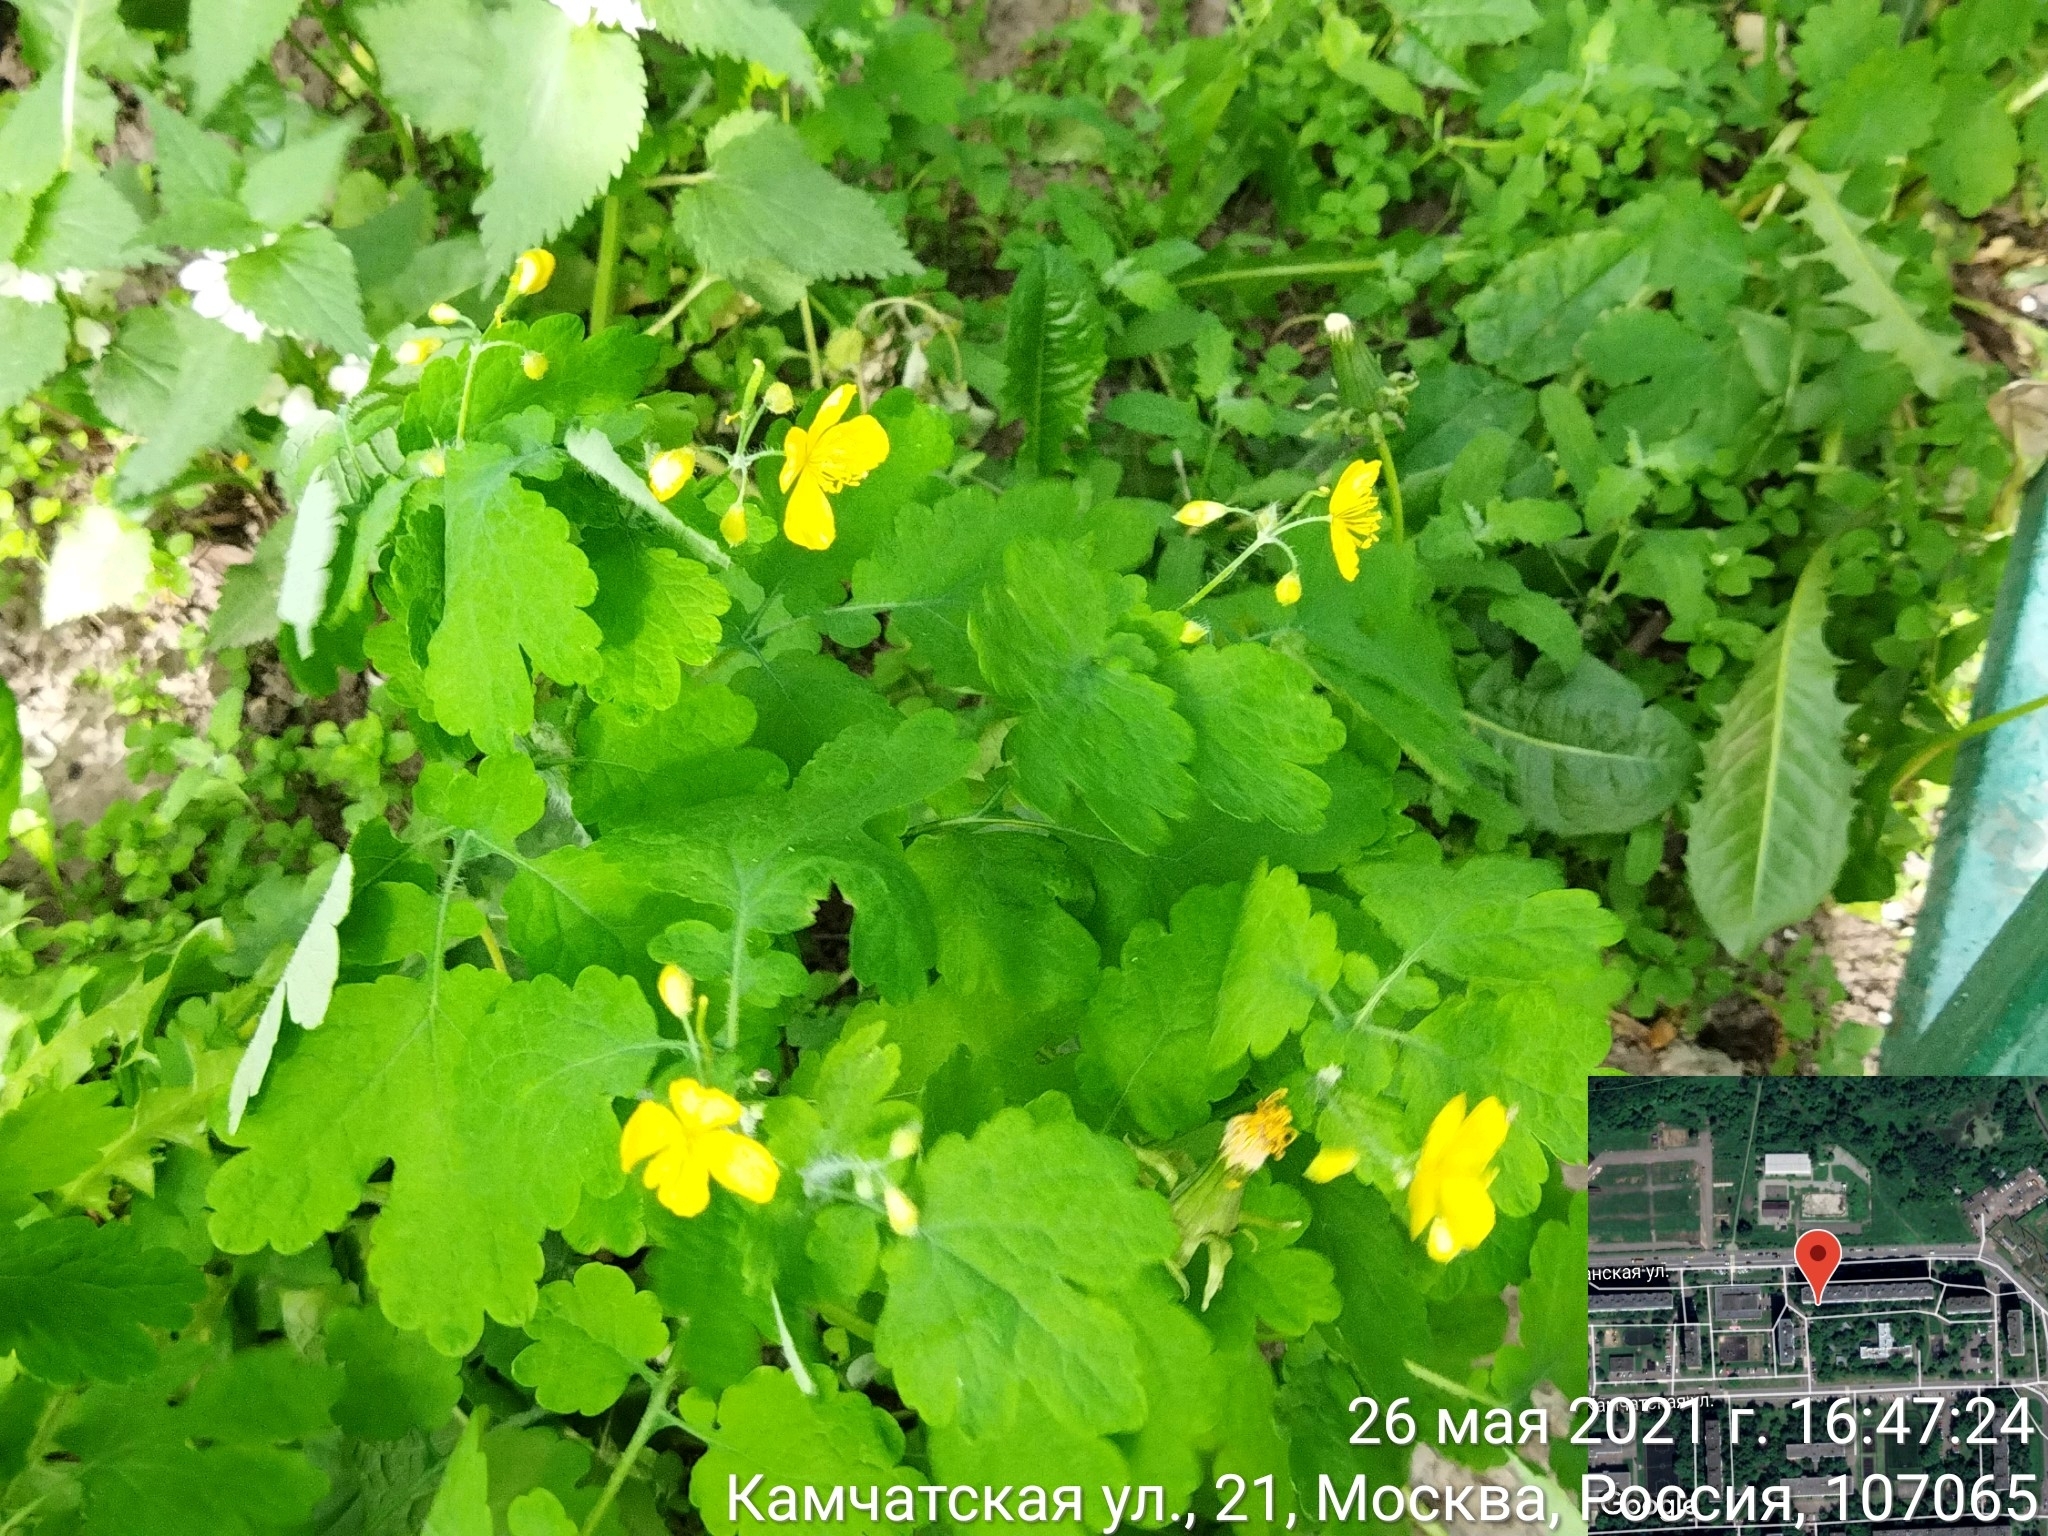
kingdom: Plantae
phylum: Tracheophyta
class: Magnoliopsida
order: Ranunculales
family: Papaveraceae
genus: Chelidonium
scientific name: Chelidonium majus
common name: Greater celandine
